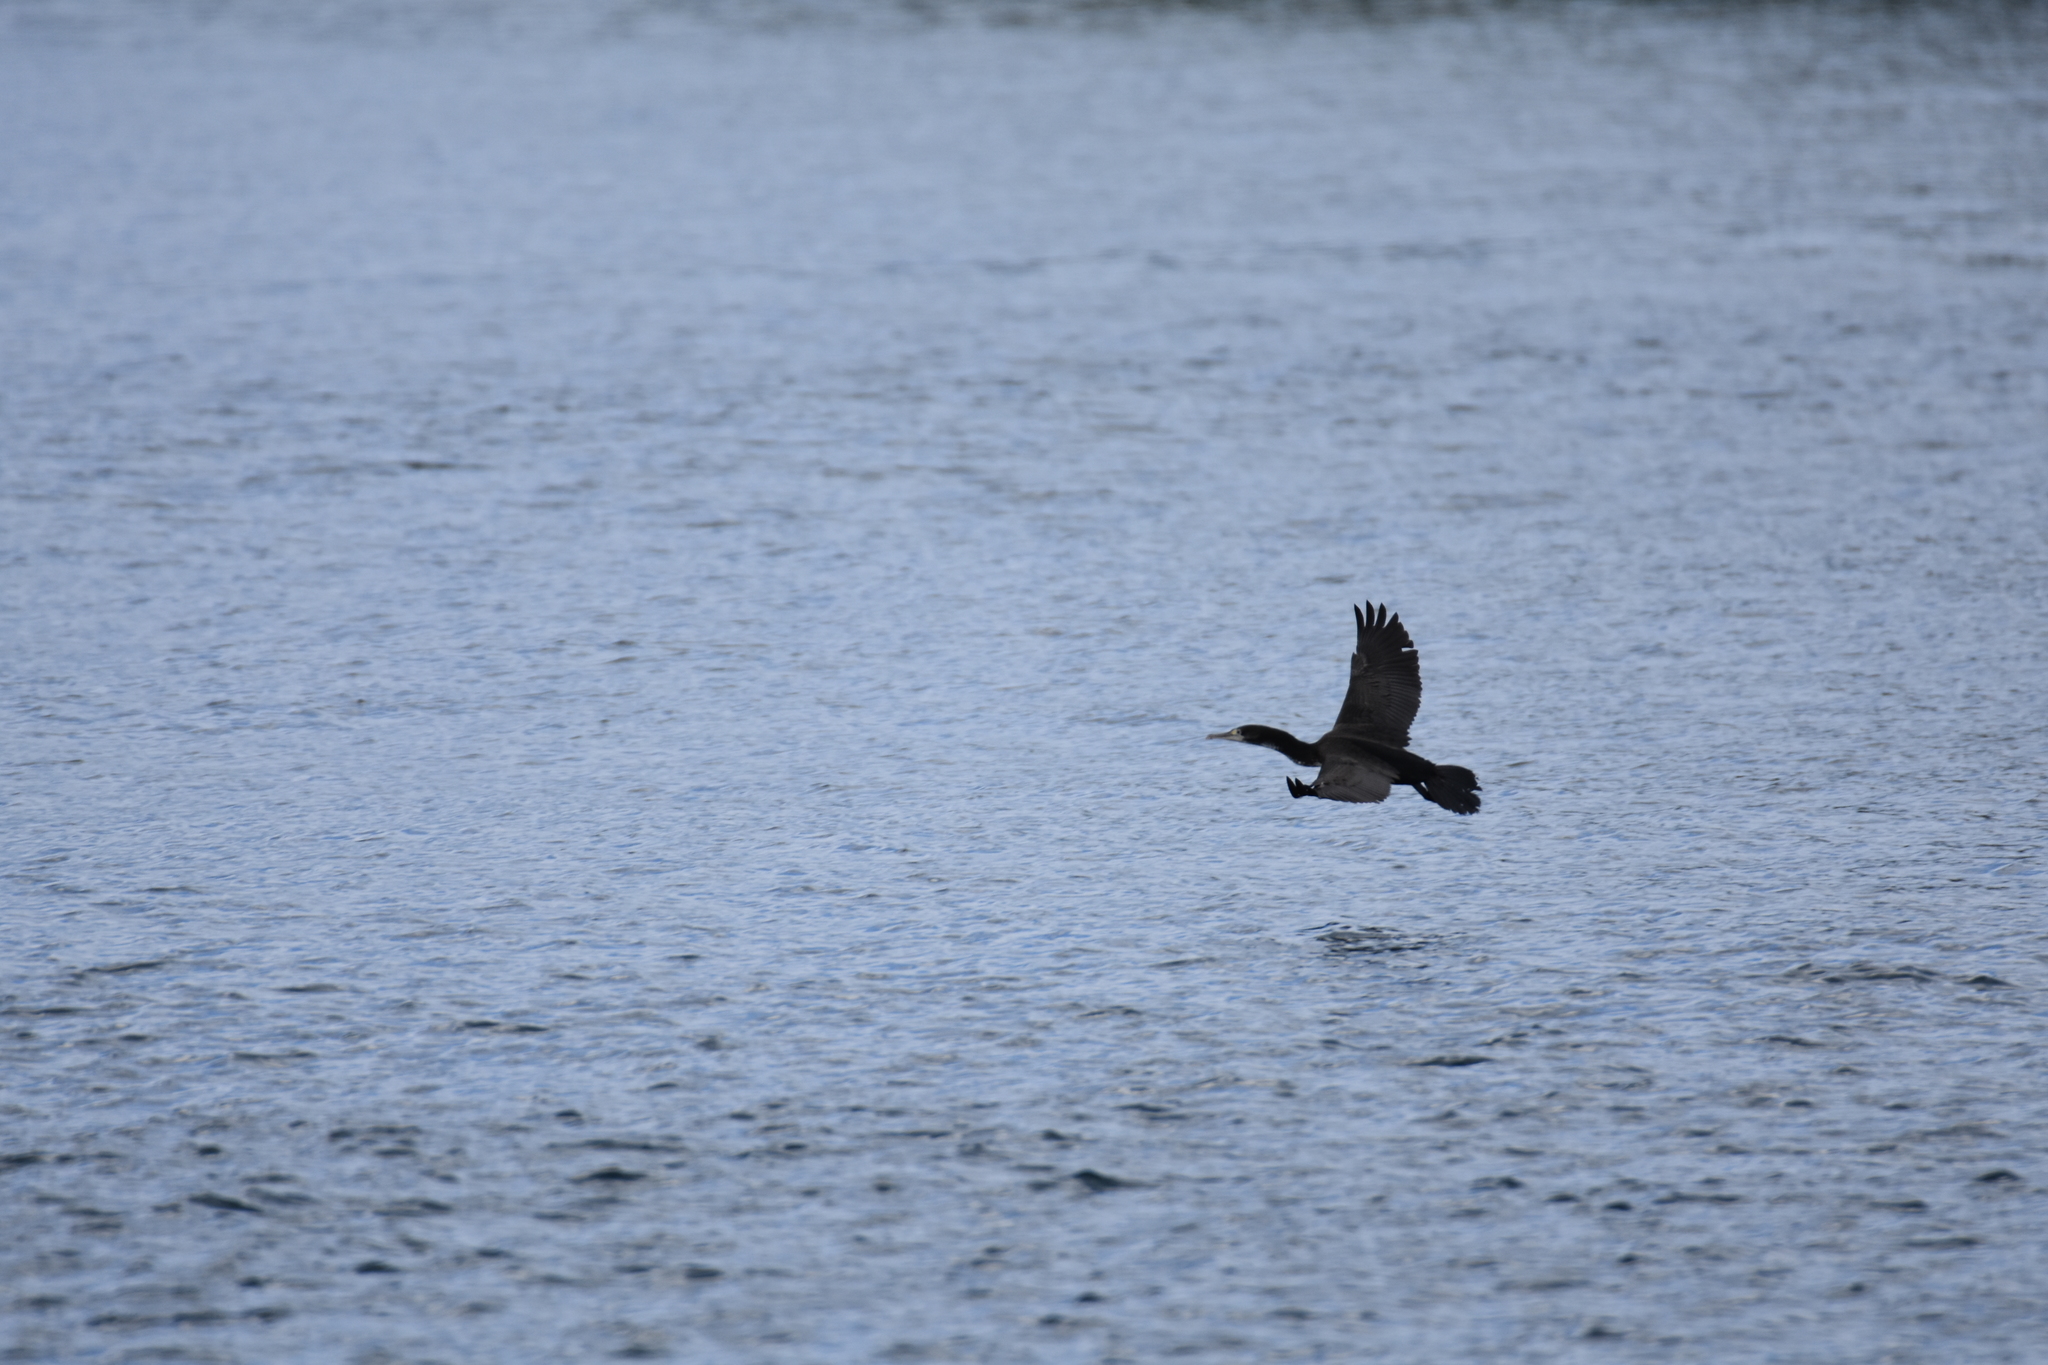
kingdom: Animalia
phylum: Chordata
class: Aves
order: Suliformes
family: Phalacrocoracidae
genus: Phalacrocorax
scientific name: Phalacrocorax varius
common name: Pied cormorant
